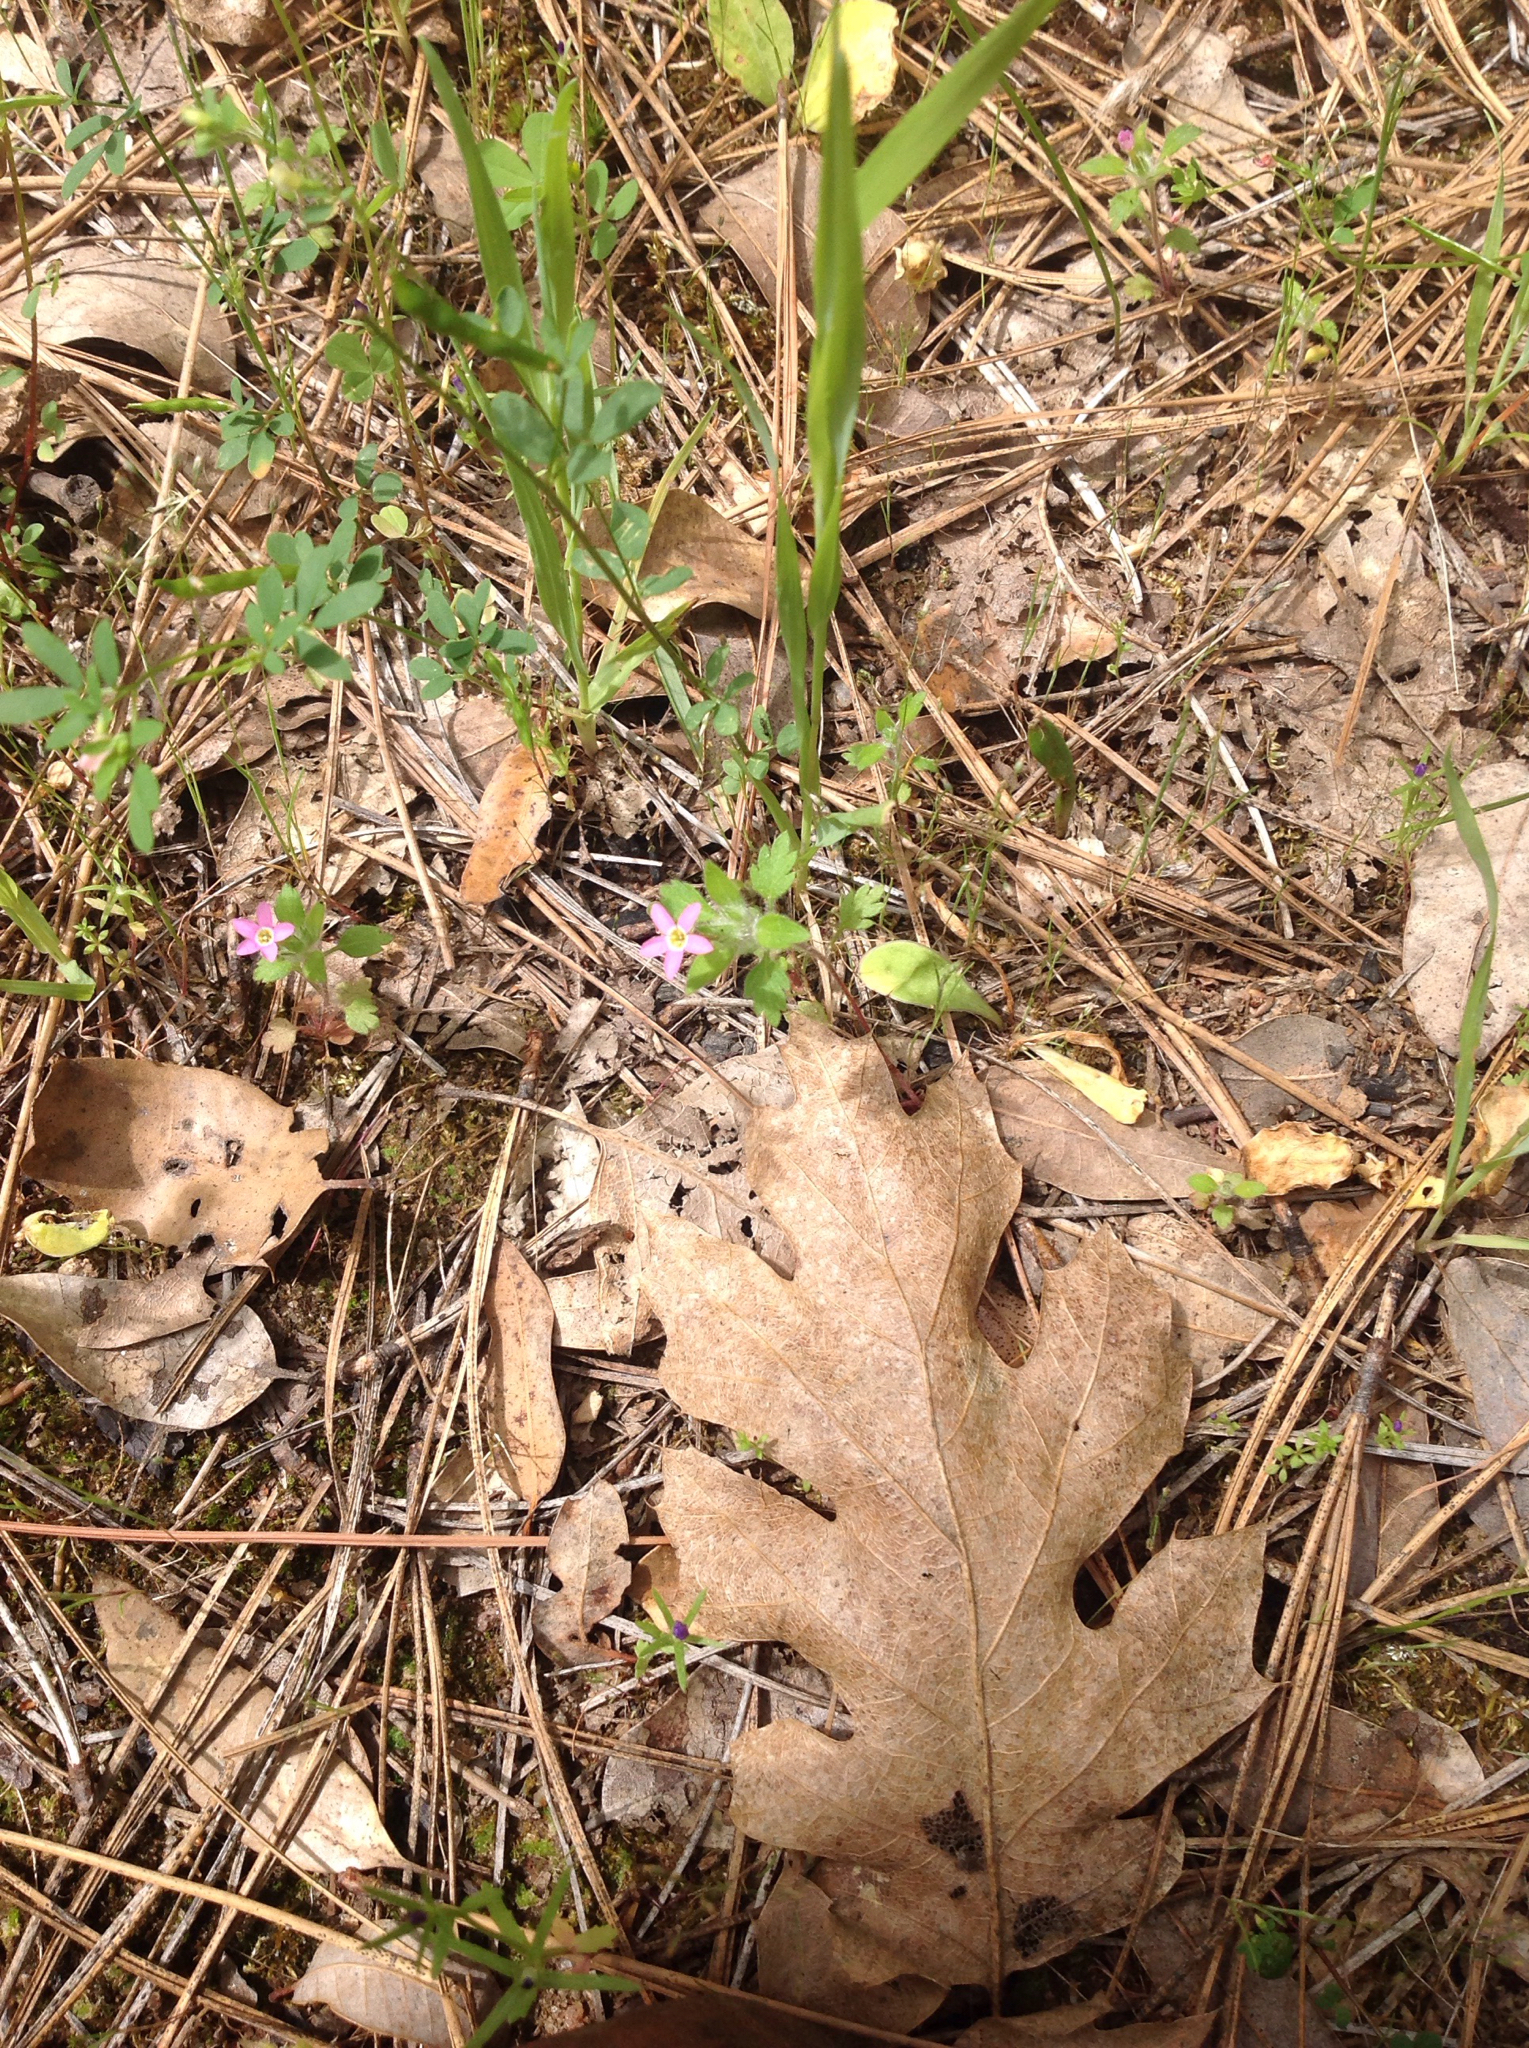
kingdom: Plantae
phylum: Tracheophyta
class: Magnoliopsida
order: Ericales
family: Polemoniaceae
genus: Collomia
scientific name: Collomia heterophylla
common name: Variable-leaved collomia
